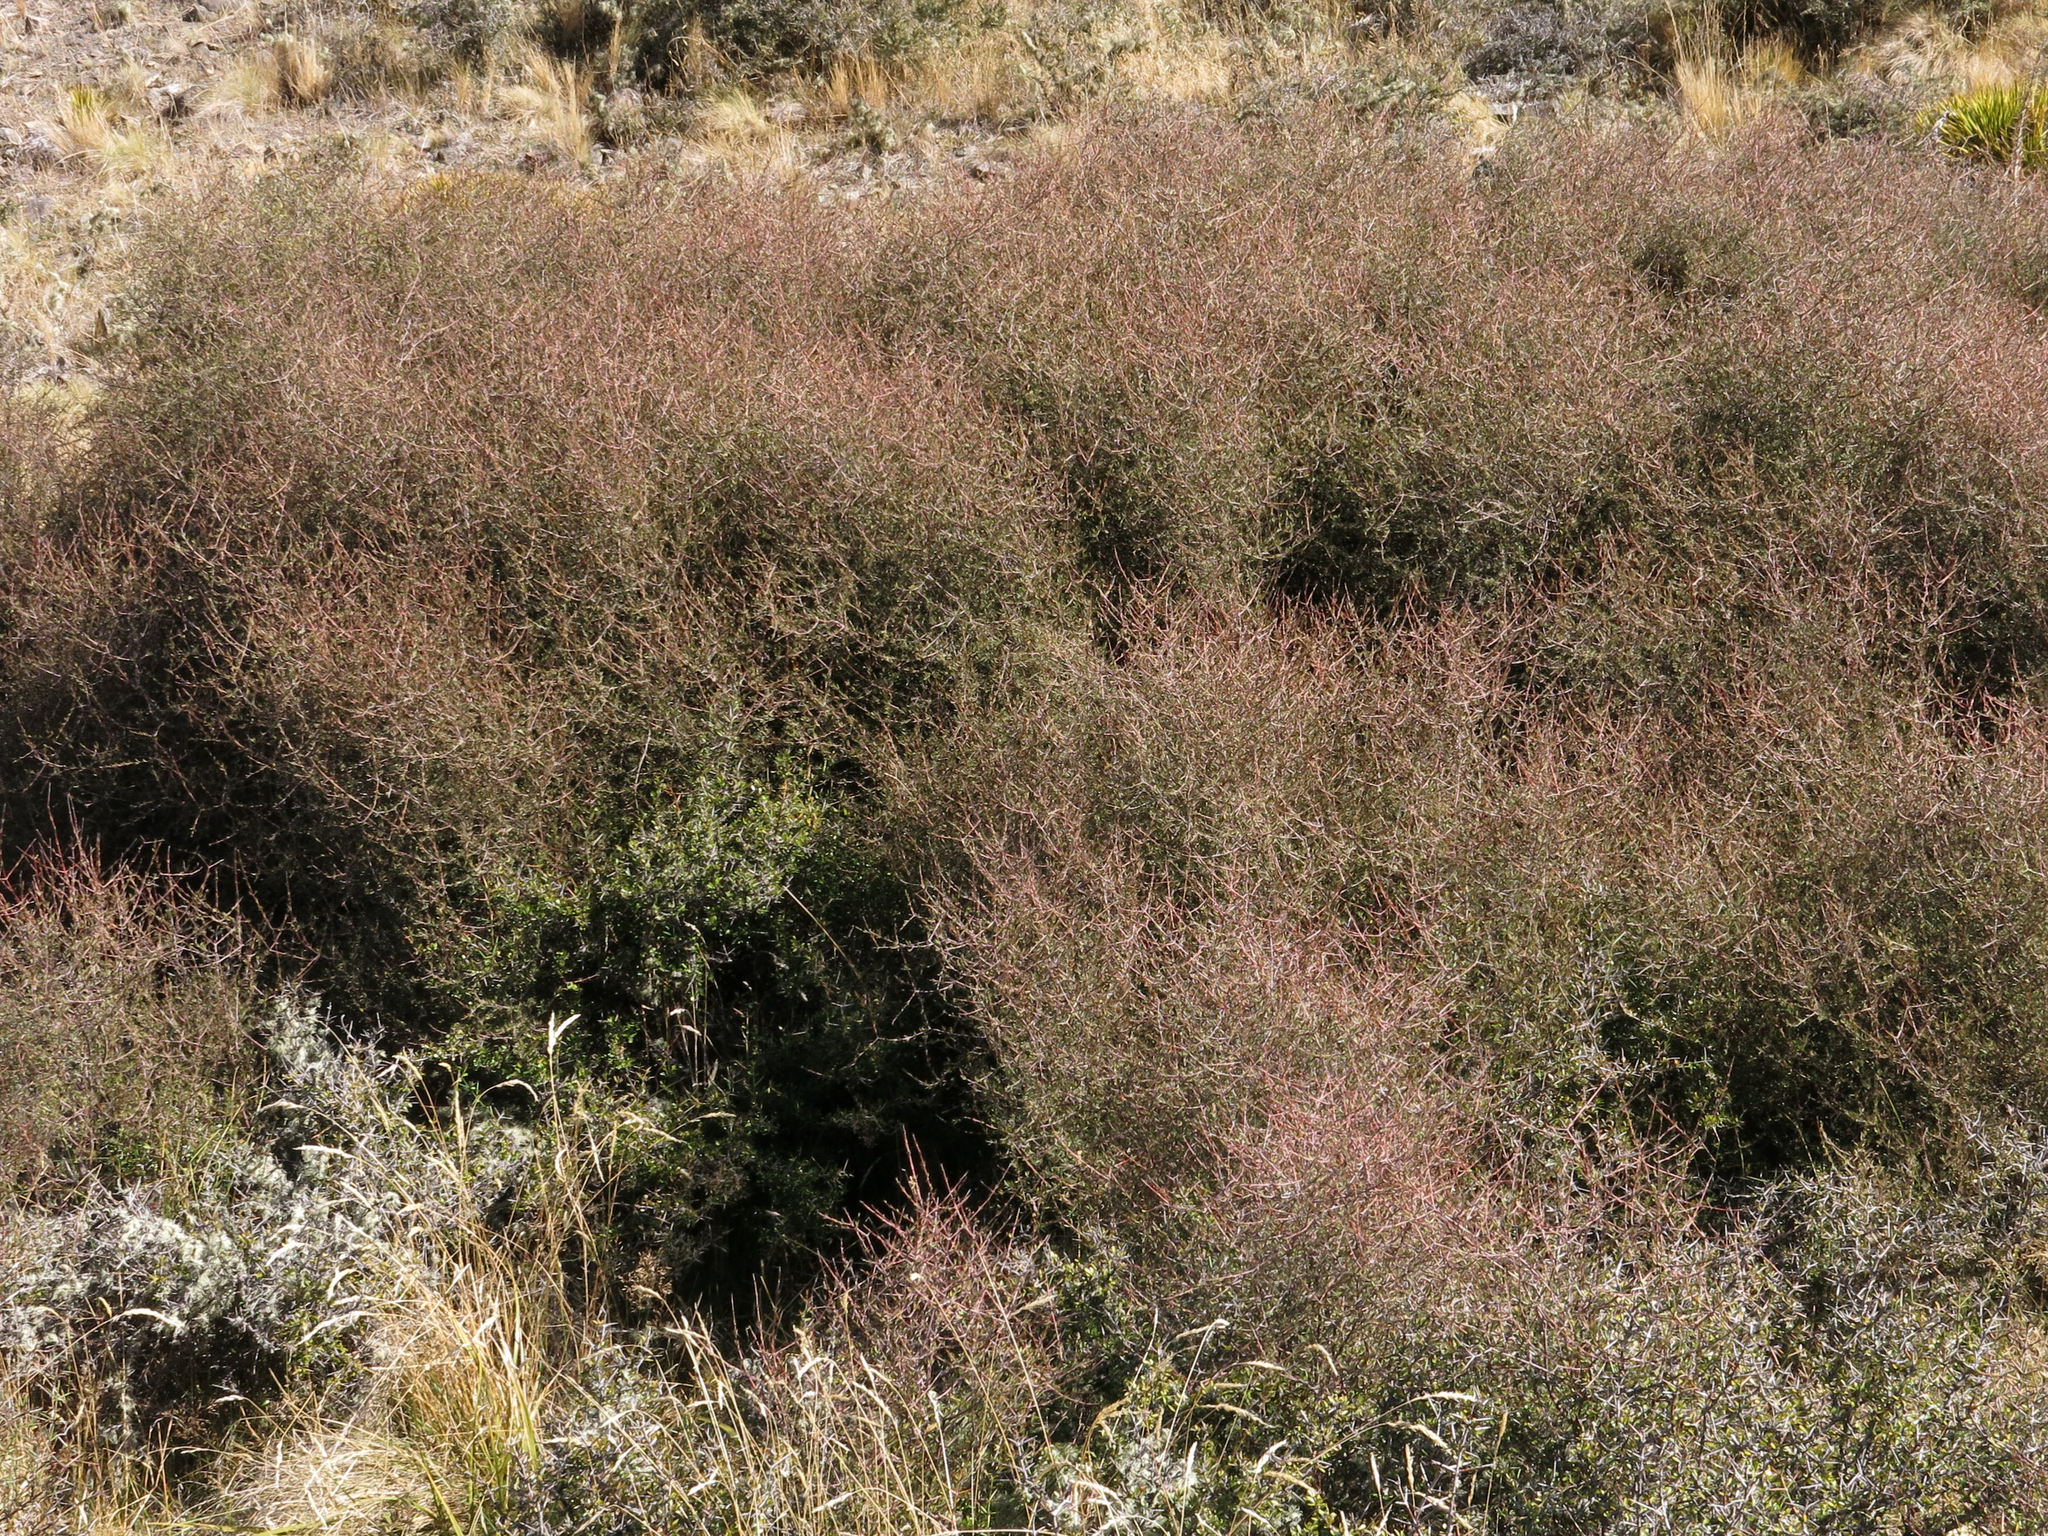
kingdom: Plantae
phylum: Tracheophyta
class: Magnoliopsida
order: Gentianales
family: Rubiaceae
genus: Coprosma
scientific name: Coprosma intertexta
